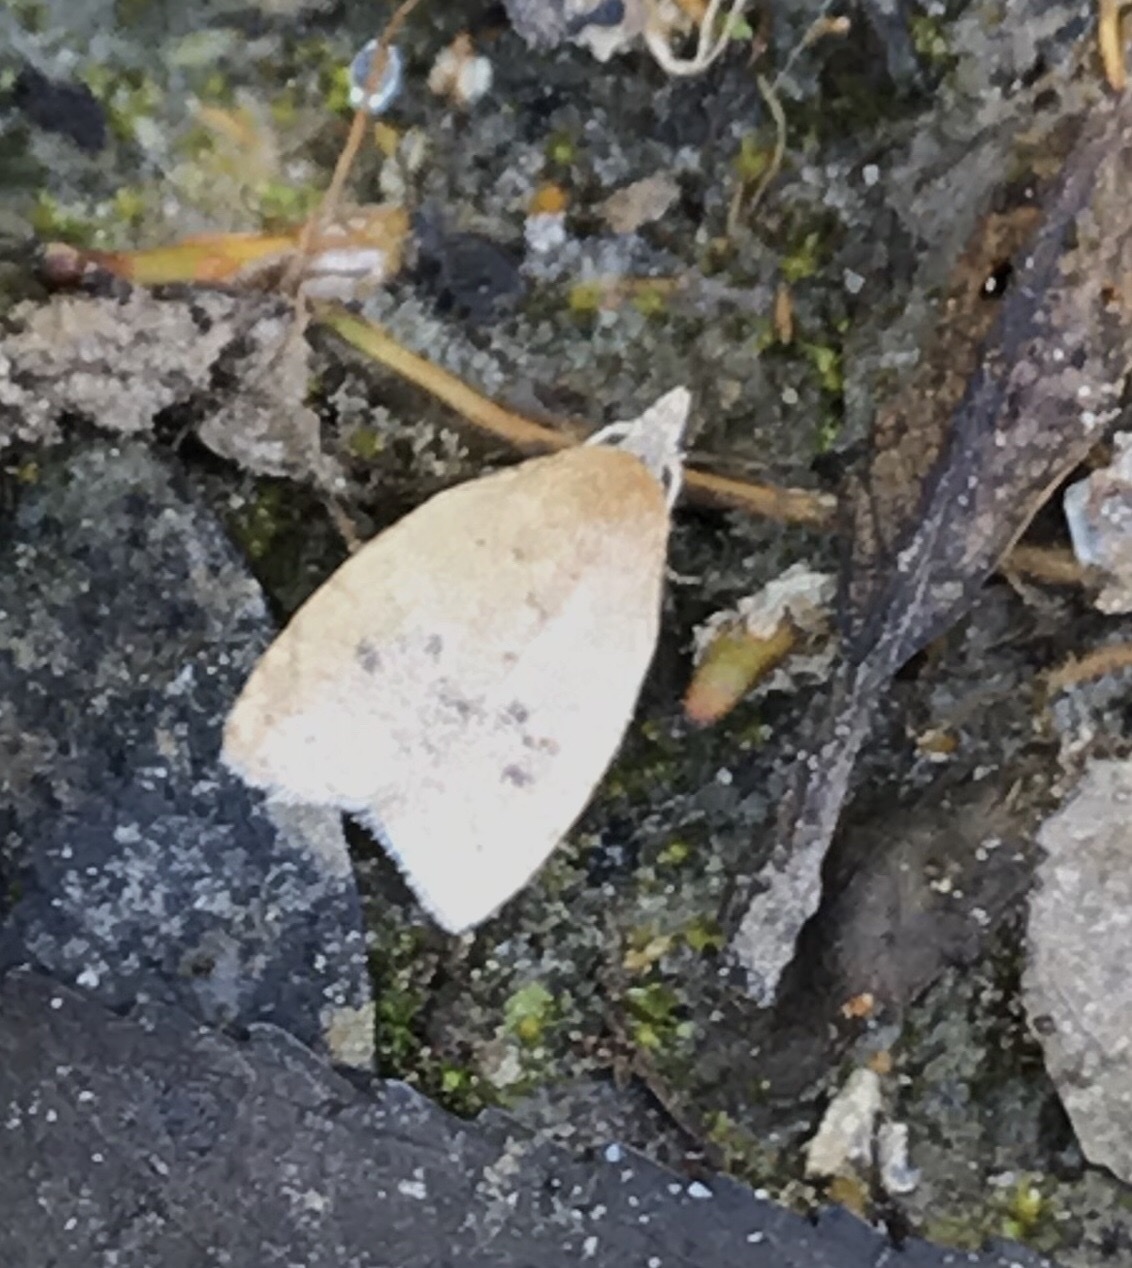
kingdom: Animalia
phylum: Arthropoda
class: Insecta
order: Lepidoptera
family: Tortricidae
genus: Sparganothoides
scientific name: Sparganothoides lentiginosana
